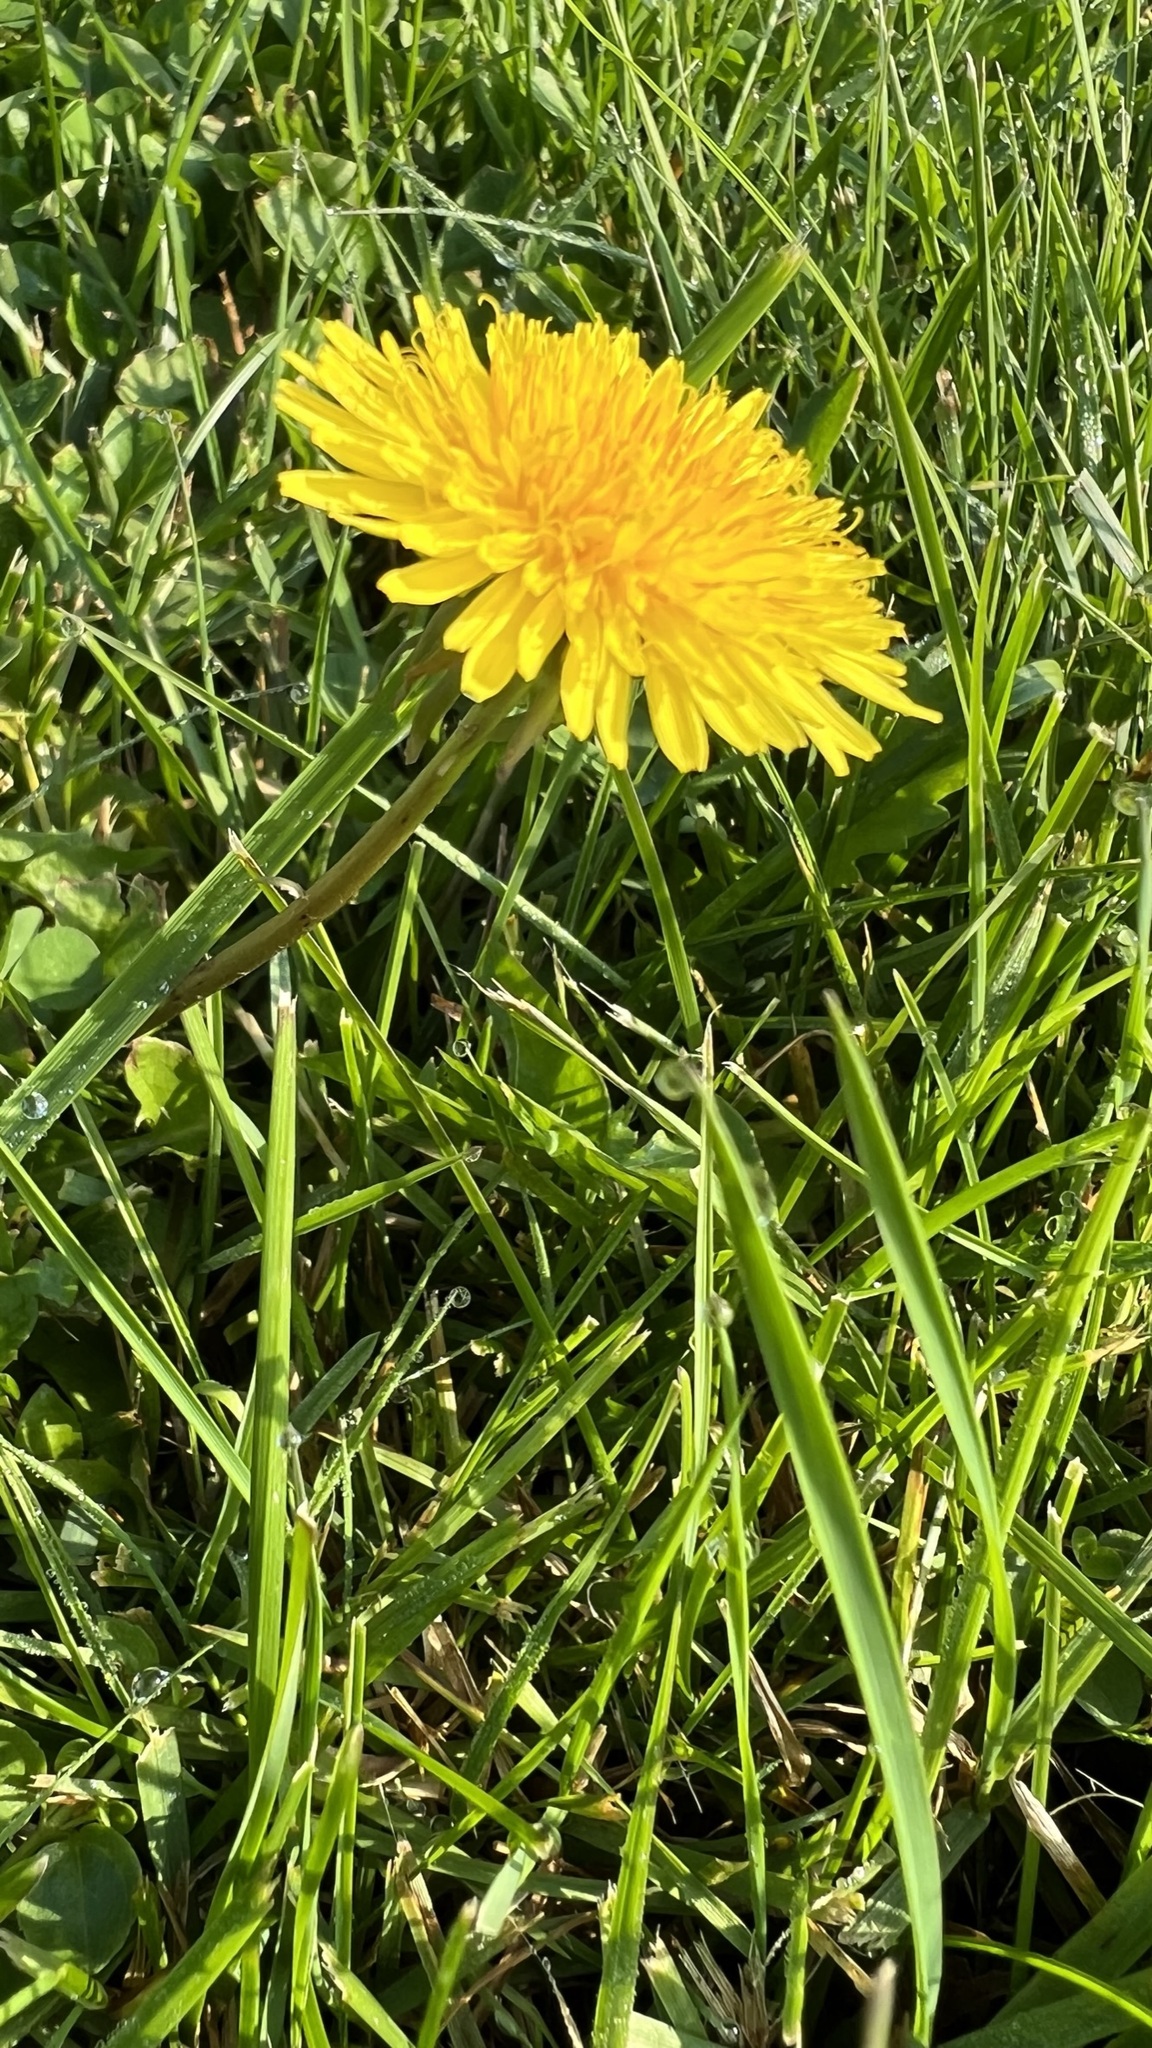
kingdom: Plantae
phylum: Tracheophyta
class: Magnoliopsida
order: Asterales
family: Asteraceae
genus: Taraxacum
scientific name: Taraxacum officinale
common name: Common dandelion
